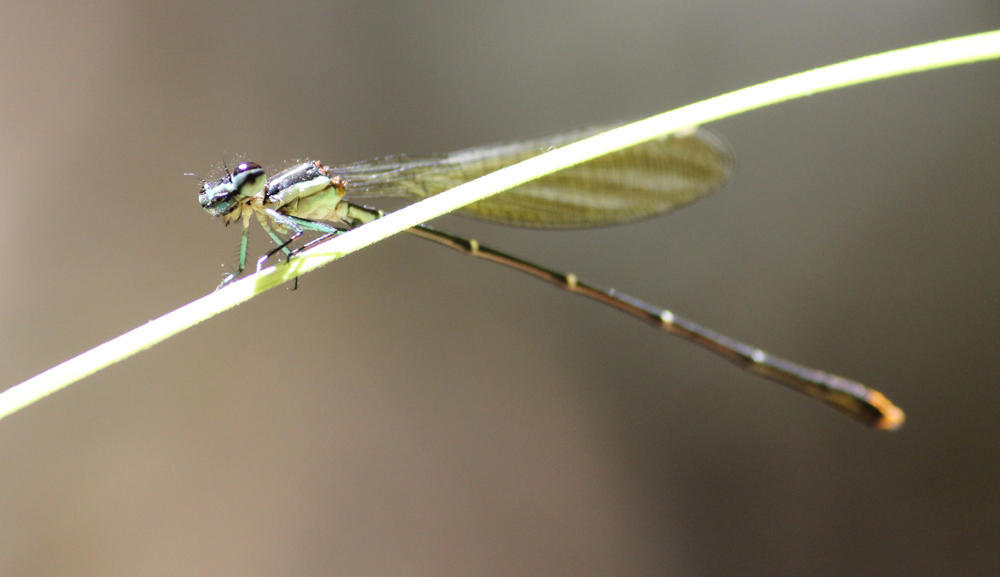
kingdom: Animalia
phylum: Arthropoda
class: Insecta
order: Odonata
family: Platycnemididae
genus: Allocnemis
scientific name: Allocnemis leucosticta
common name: Goldtail
